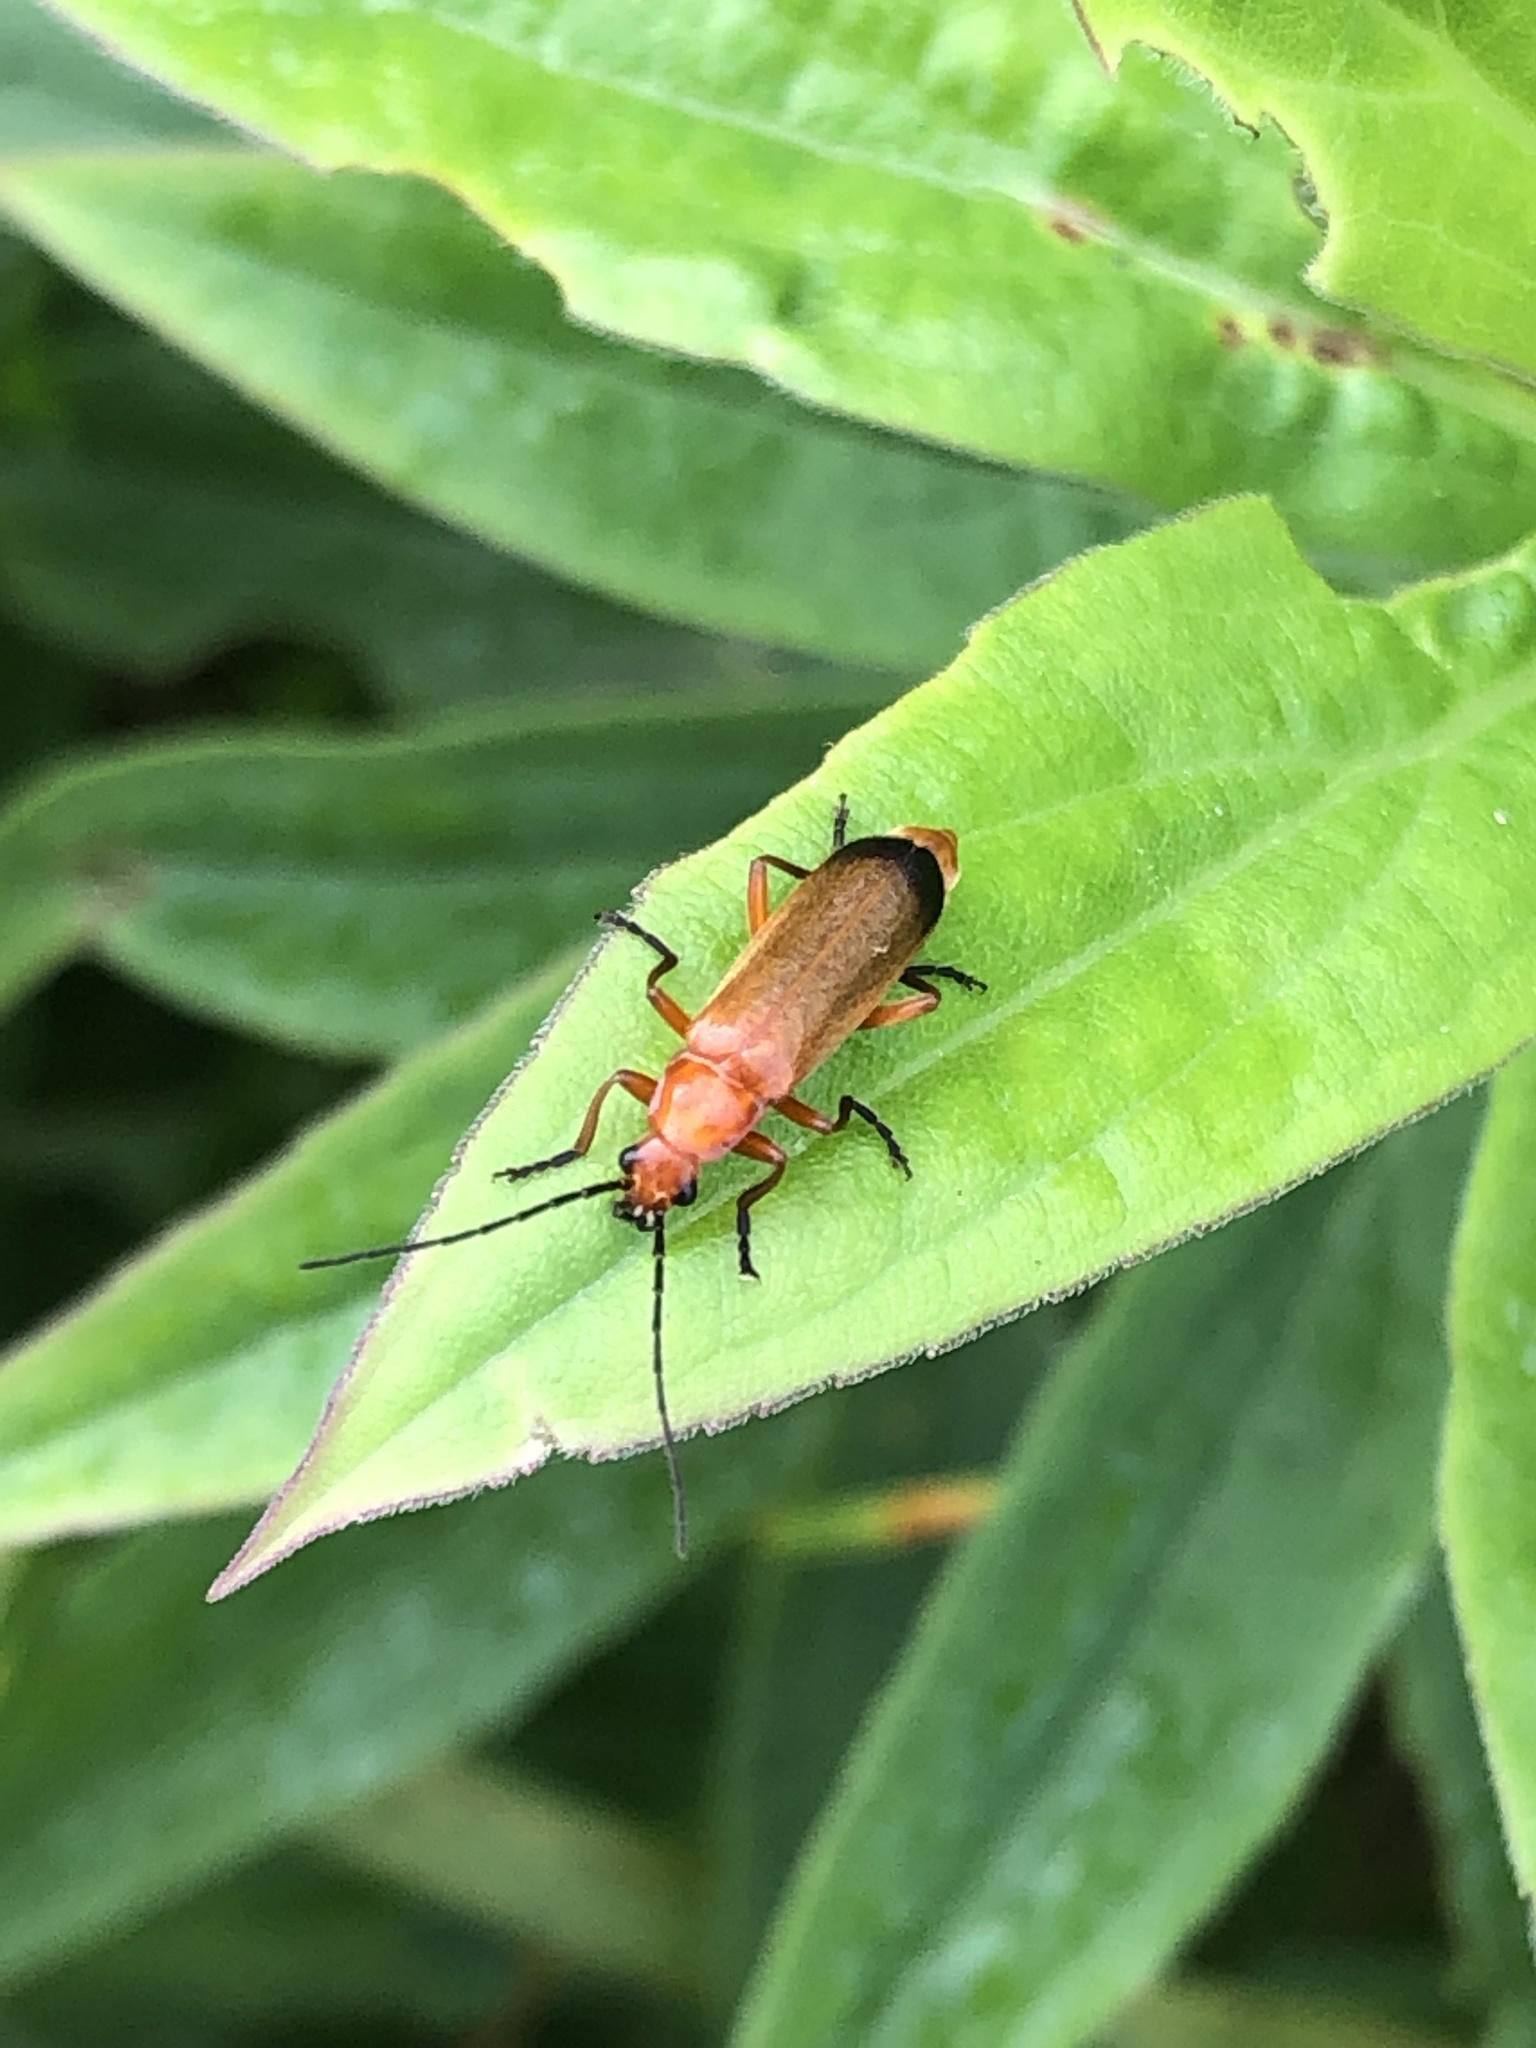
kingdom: Animalia
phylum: Arthropoda
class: Insecta
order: Coleoptera
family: Cantharidae
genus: Rhagonycha
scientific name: Rhagonycha fulva
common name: Common red soldier beetle
